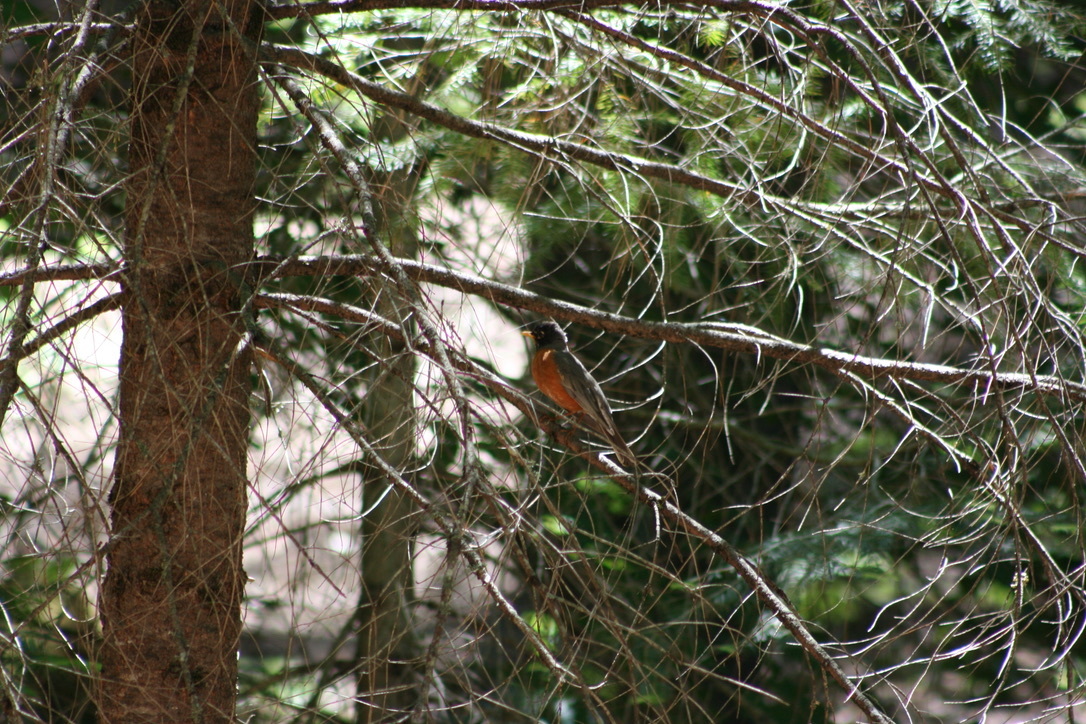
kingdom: Animalia
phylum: Chordata
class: Aves
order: Passeriformes
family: Turdidae
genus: Turdus
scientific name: Turdus migratorius
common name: American robin
